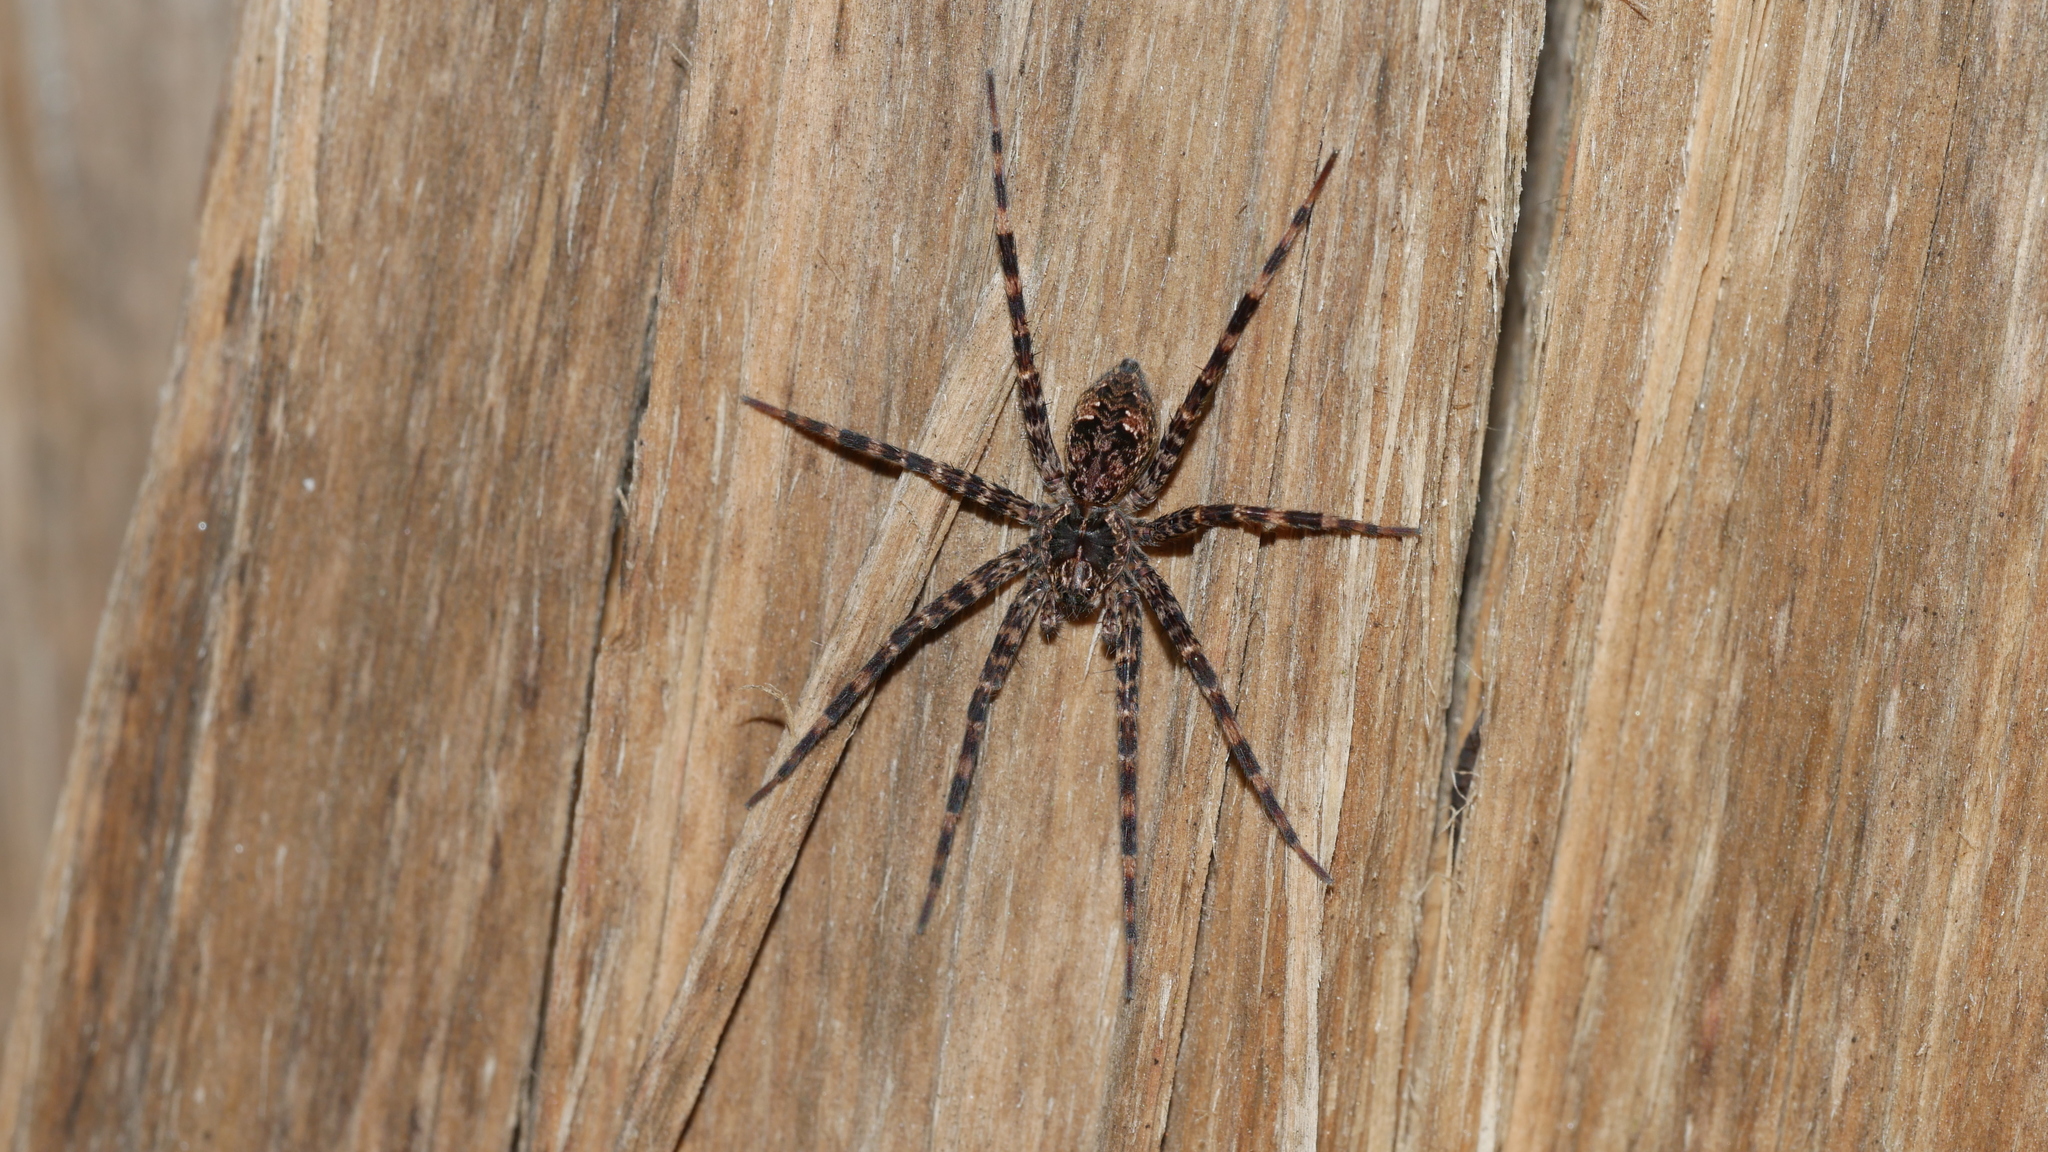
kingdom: Animalia
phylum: Arthropoda
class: Arachnida
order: Araneae
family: Pisauridae
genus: Dolomedes
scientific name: Dolomedes tenebrosus
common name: Dark fishing spider
